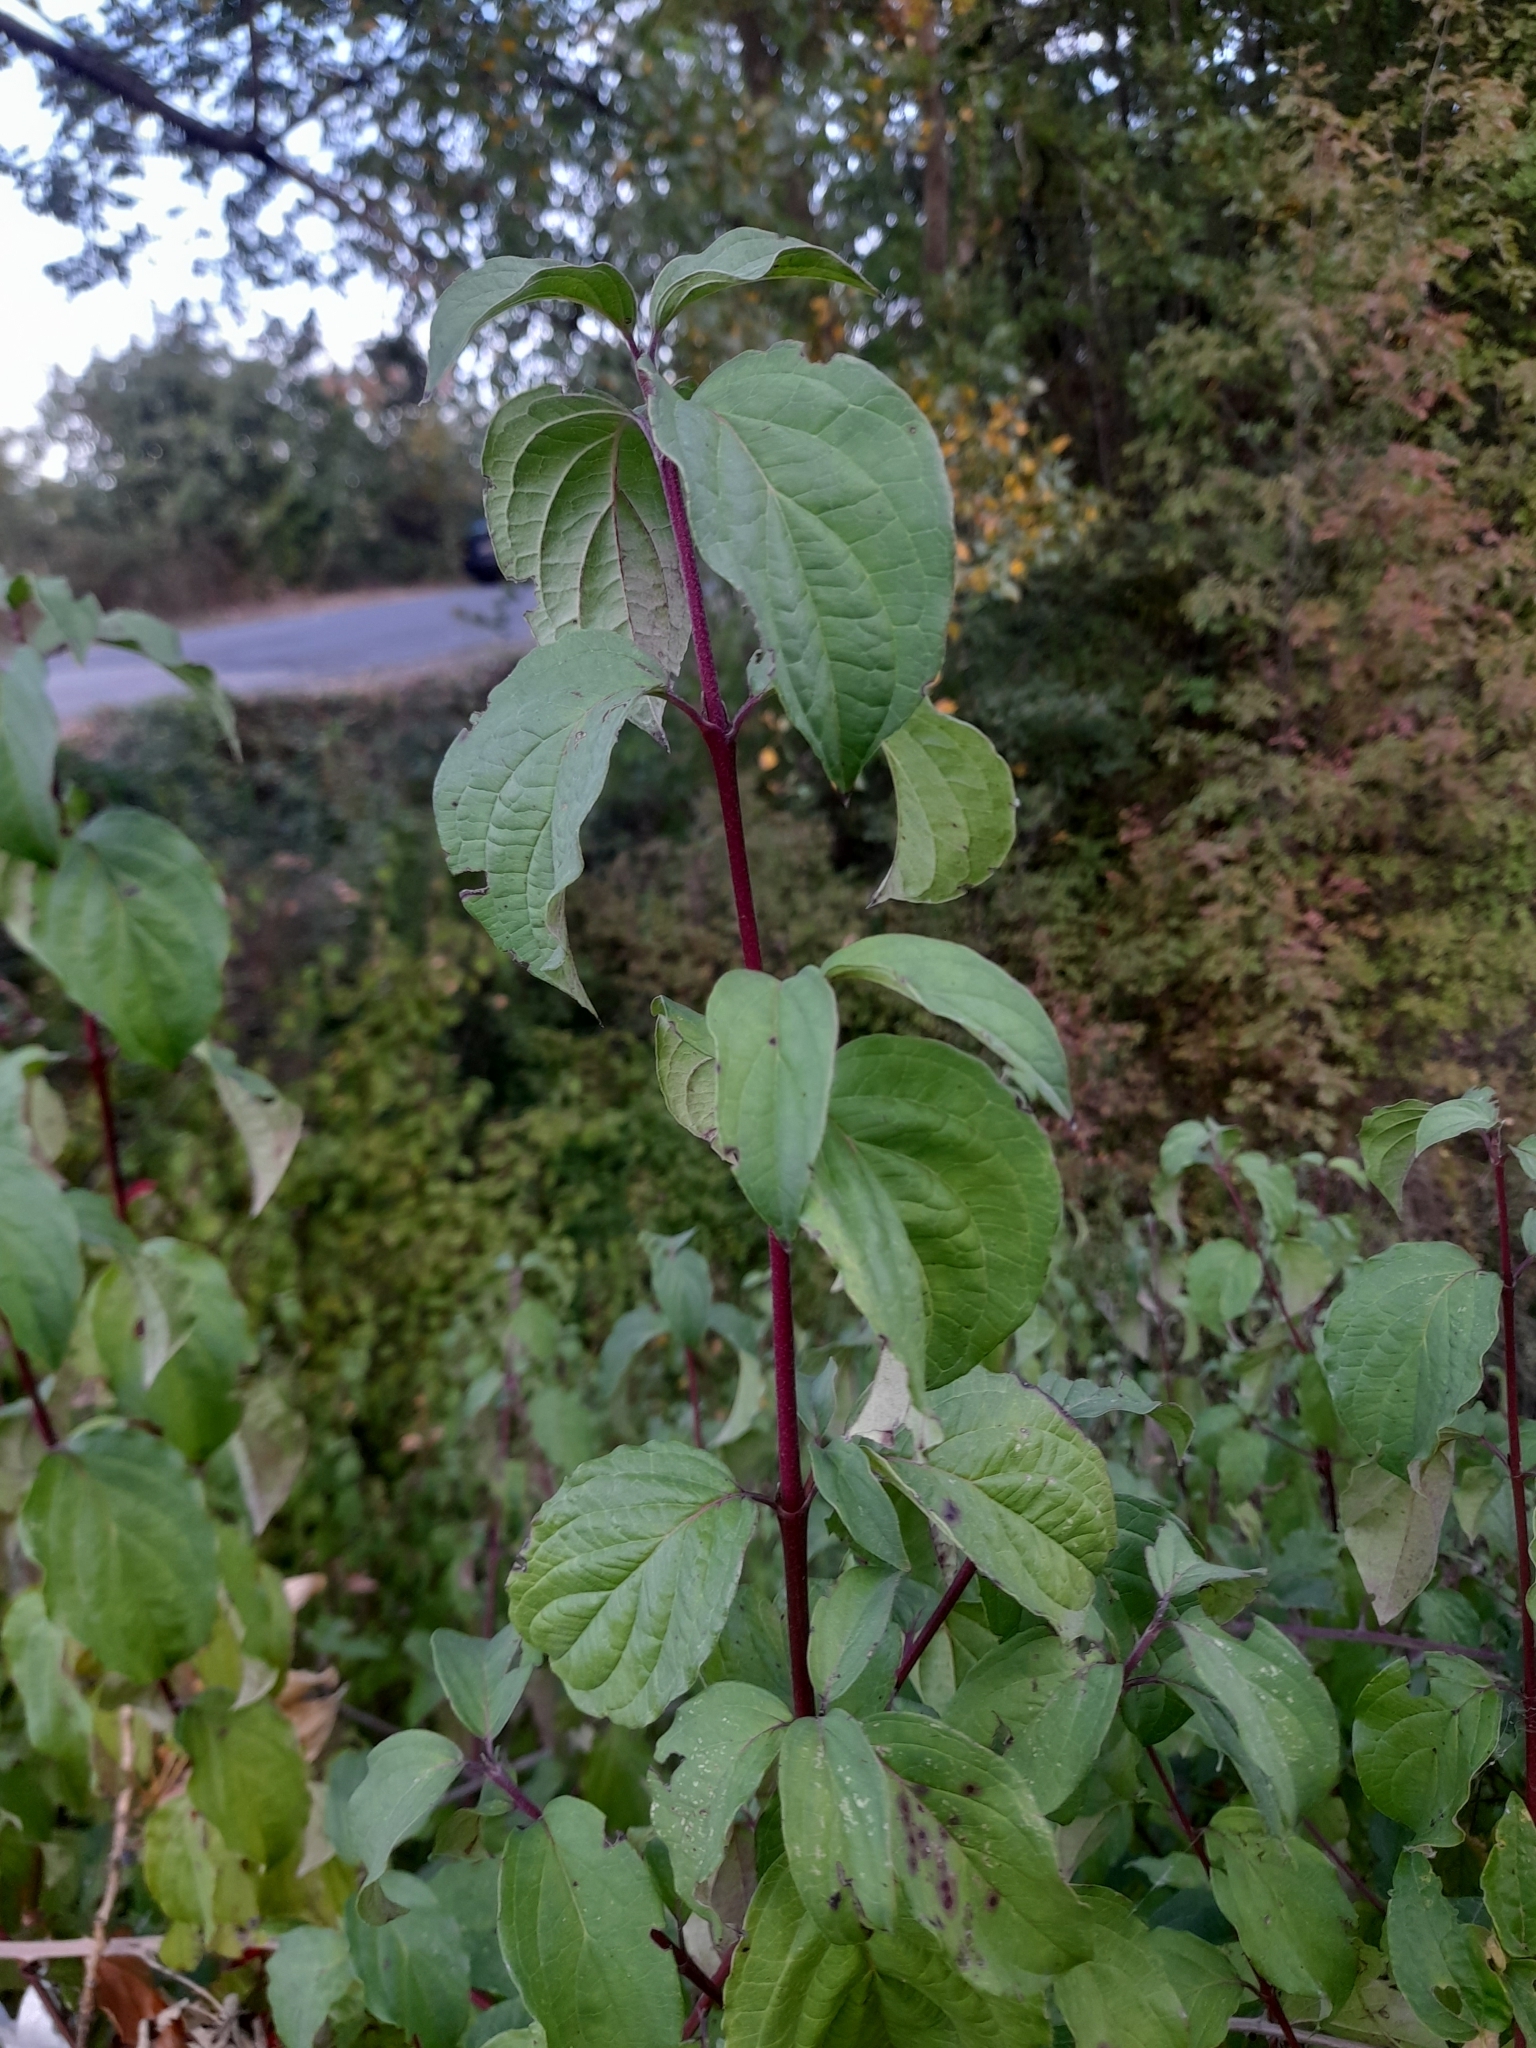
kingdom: Plantae
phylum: Tracheophyta
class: Magnoliopsida
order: Cornales
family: Cornaceae
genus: Cornus
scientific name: Cornus sanguinea
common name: Dogwood
